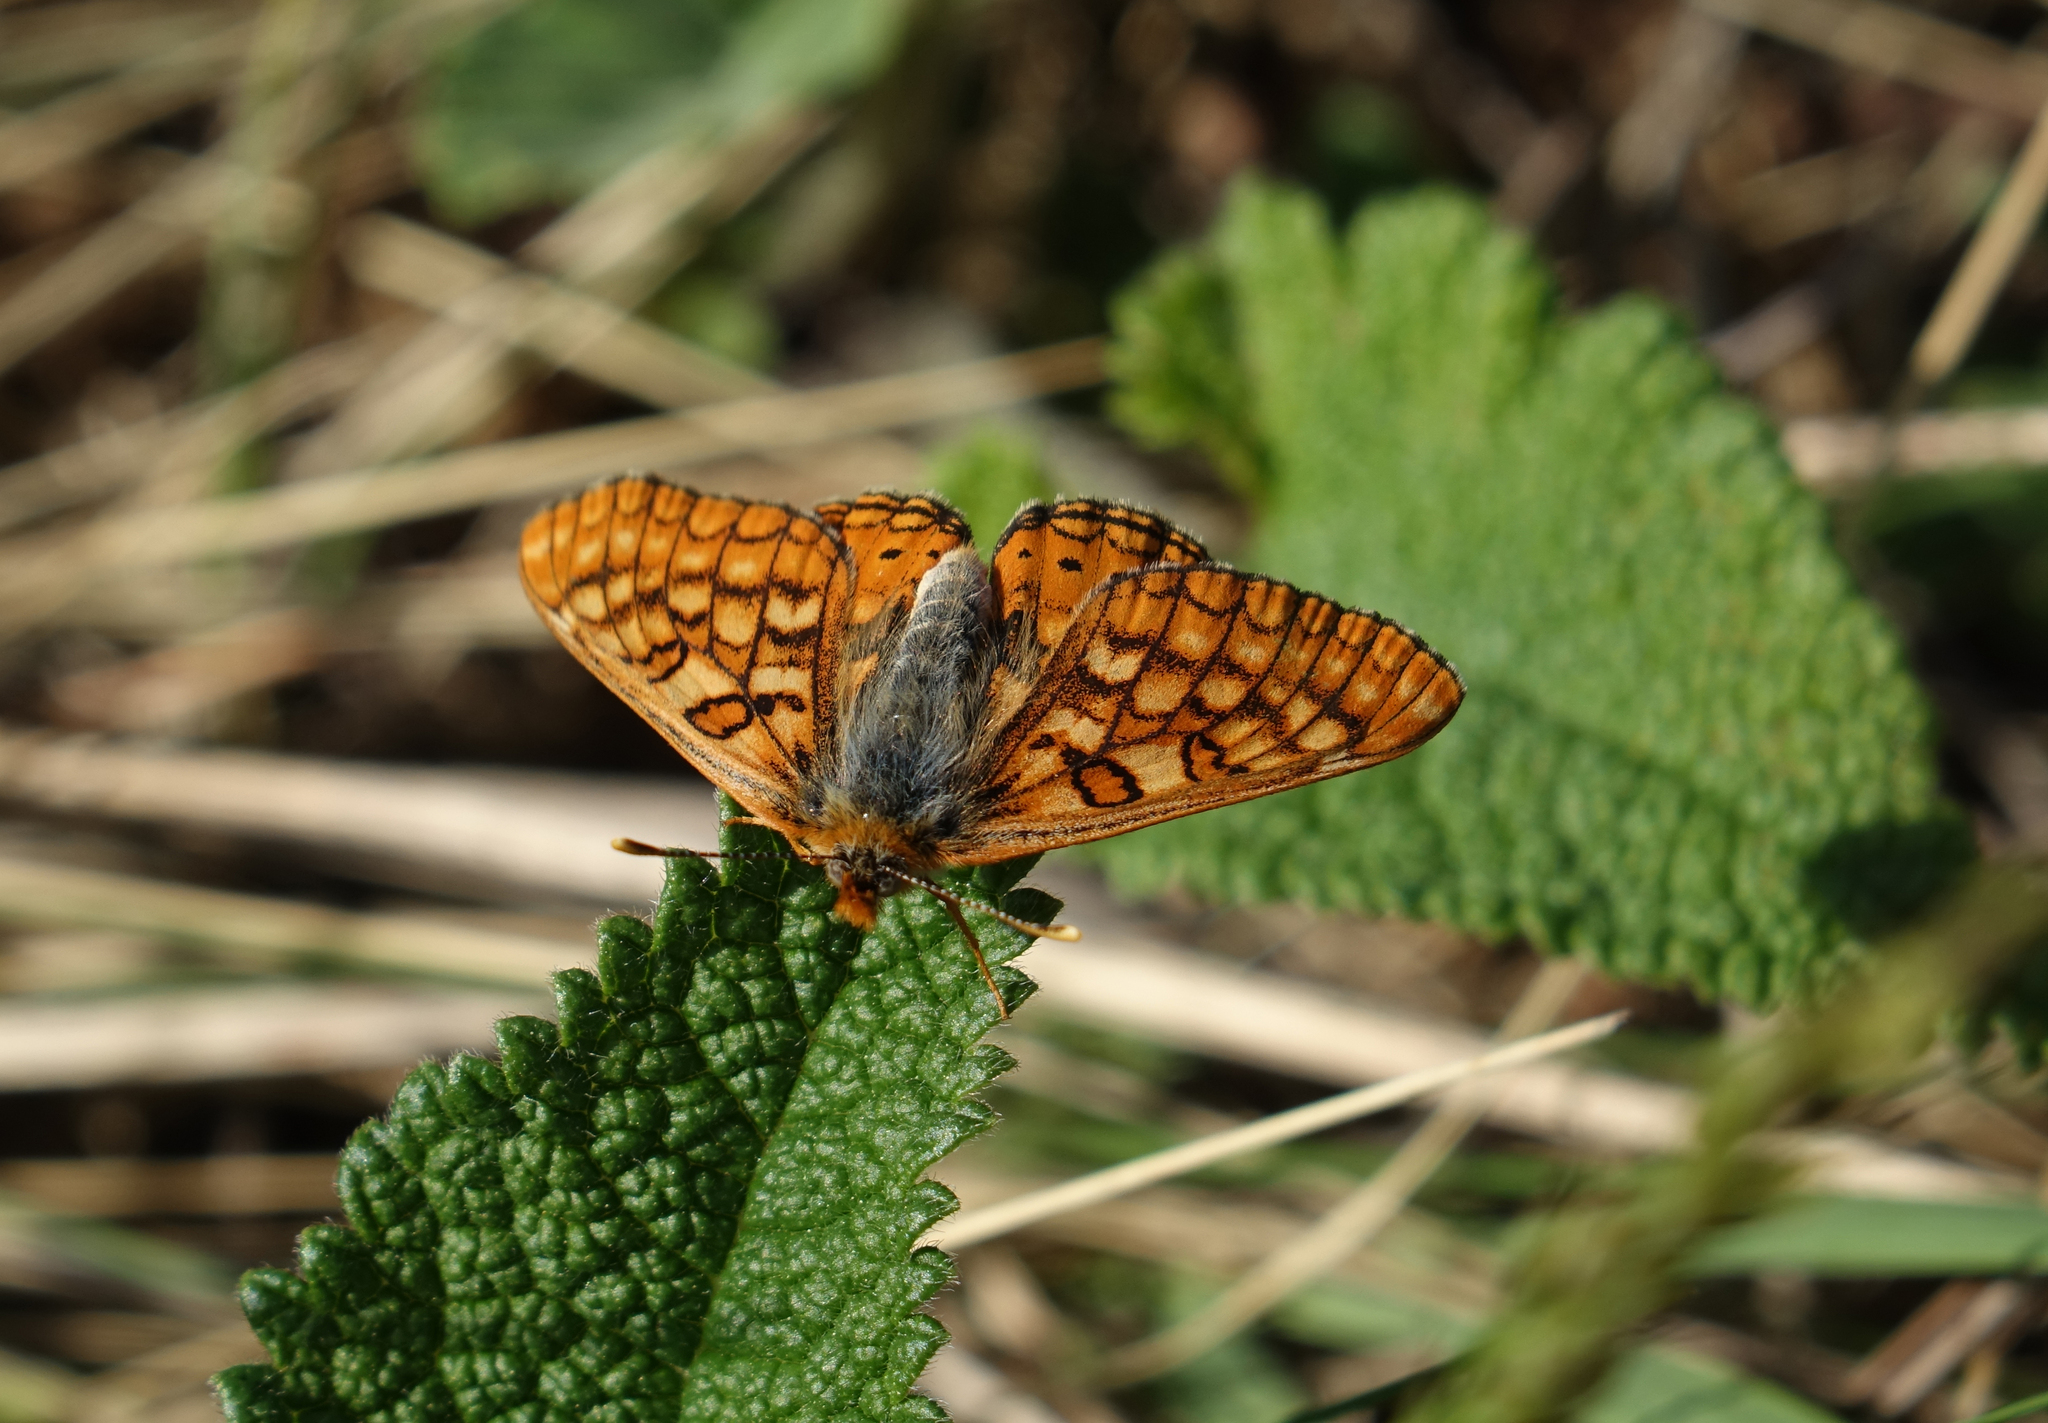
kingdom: Animalia
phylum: Arthropoda
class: Insecta
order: Lepidoptera
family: Nymphalidae
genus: Euphydryas
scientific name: Euphydryas aurinia
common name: Marsh fritillary
